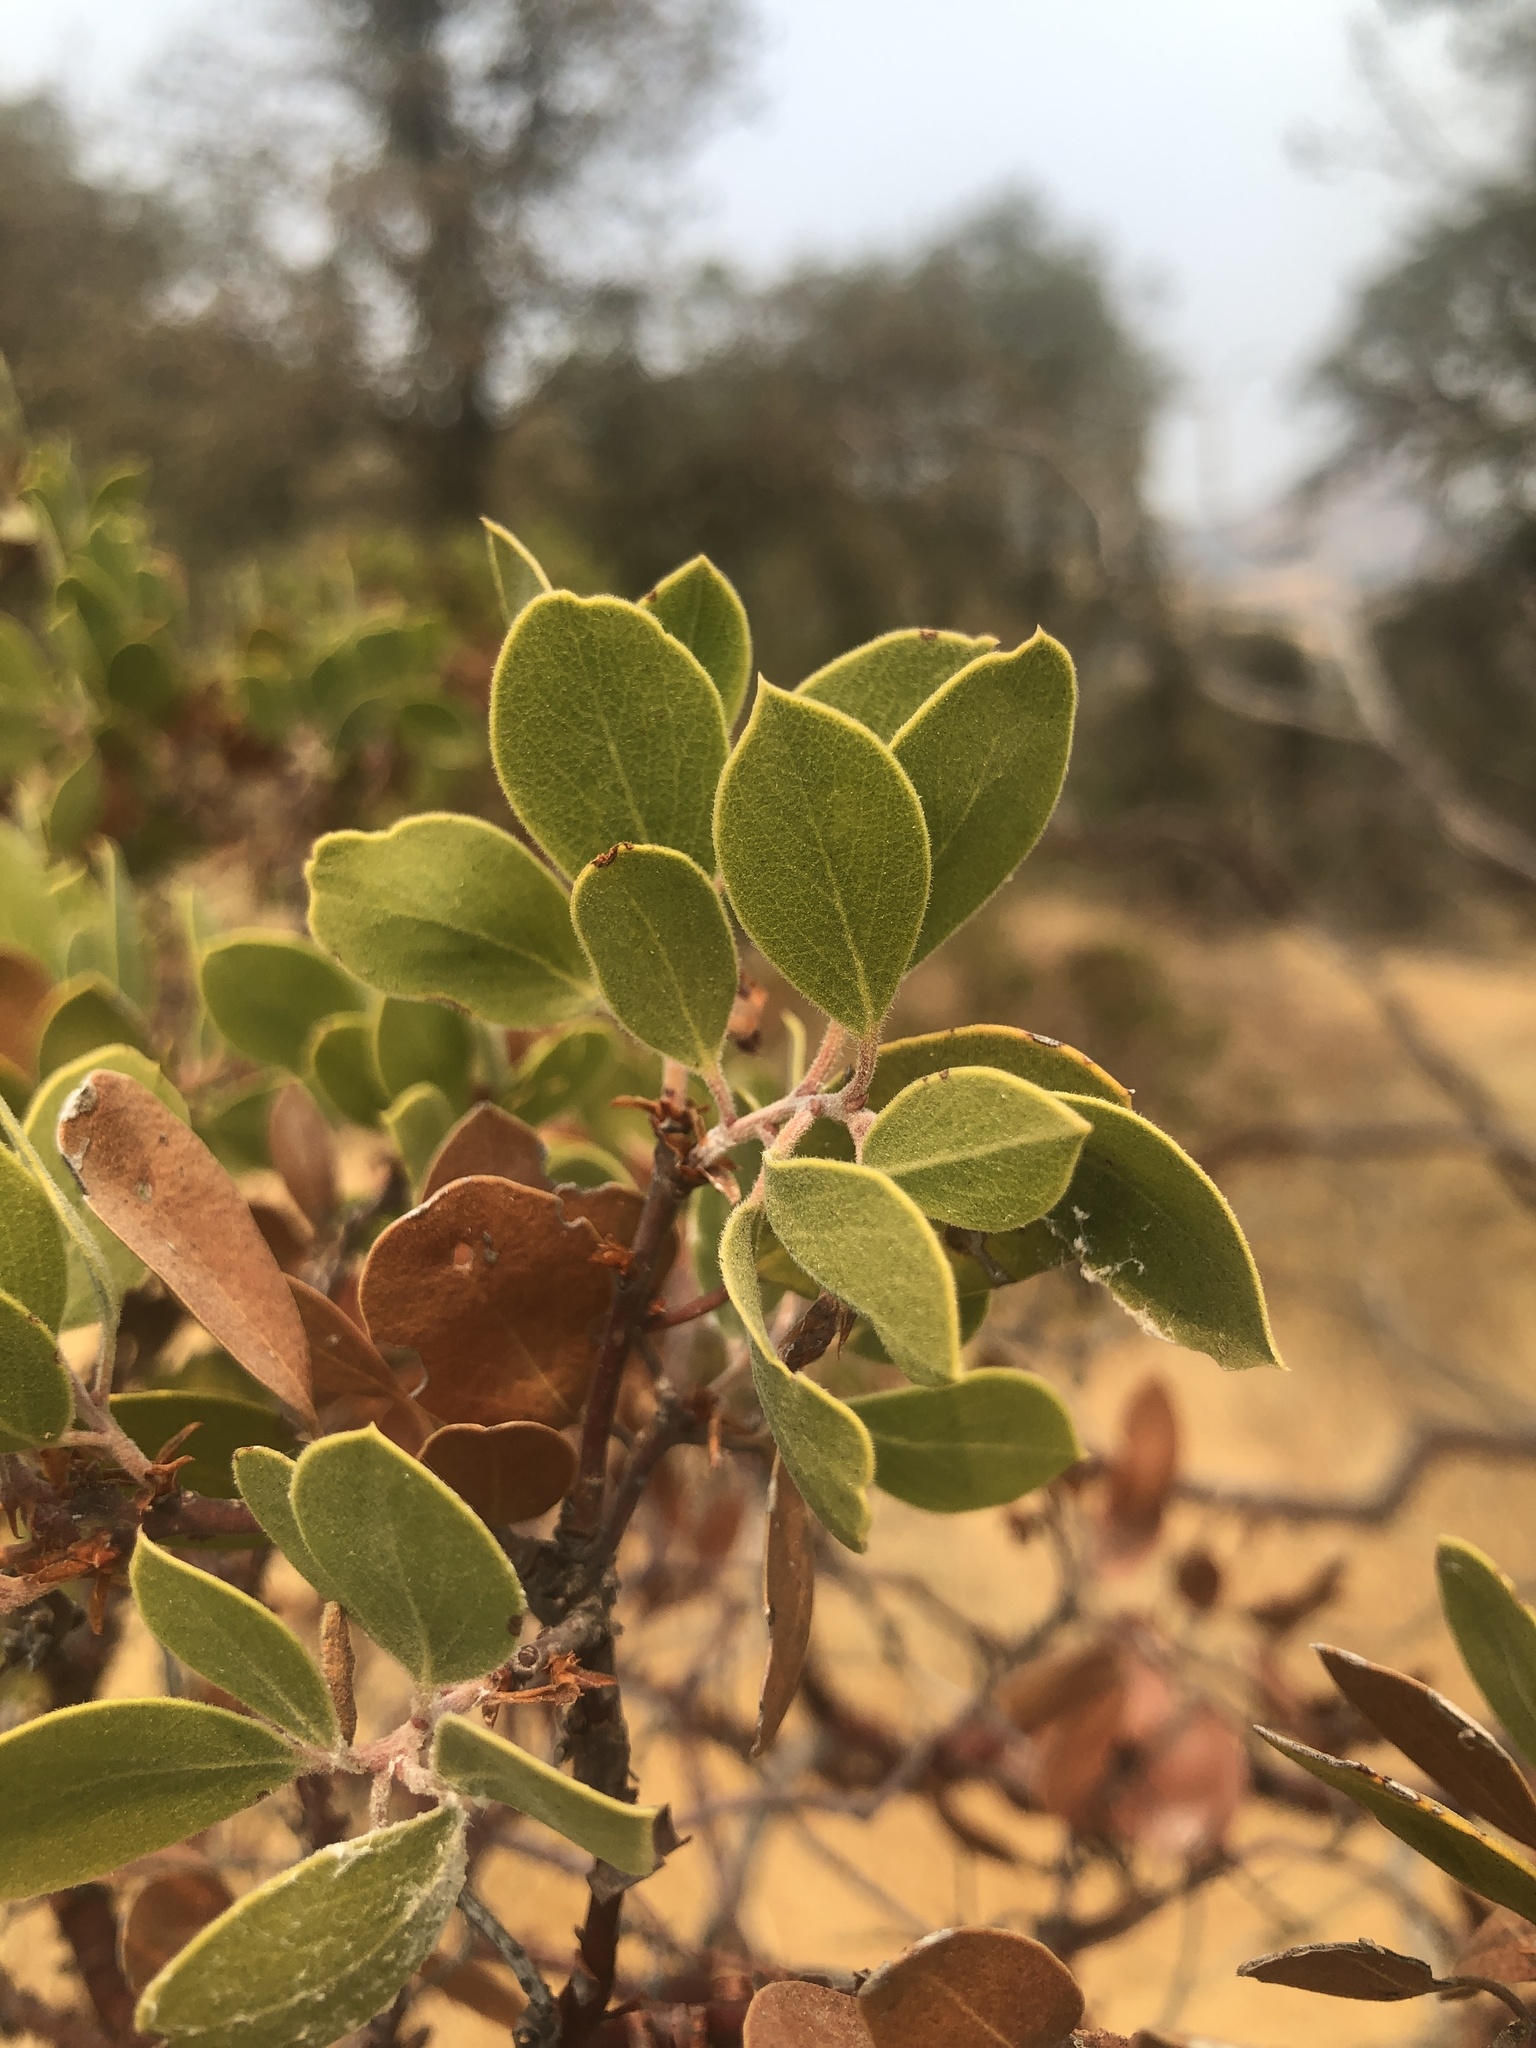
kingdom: Plantae
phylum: Tracheophyta
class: Magnoliopsida
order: Ericales
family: Ericaceae
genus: Arctostaphylos
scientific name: Arctostaphylos manzanita
